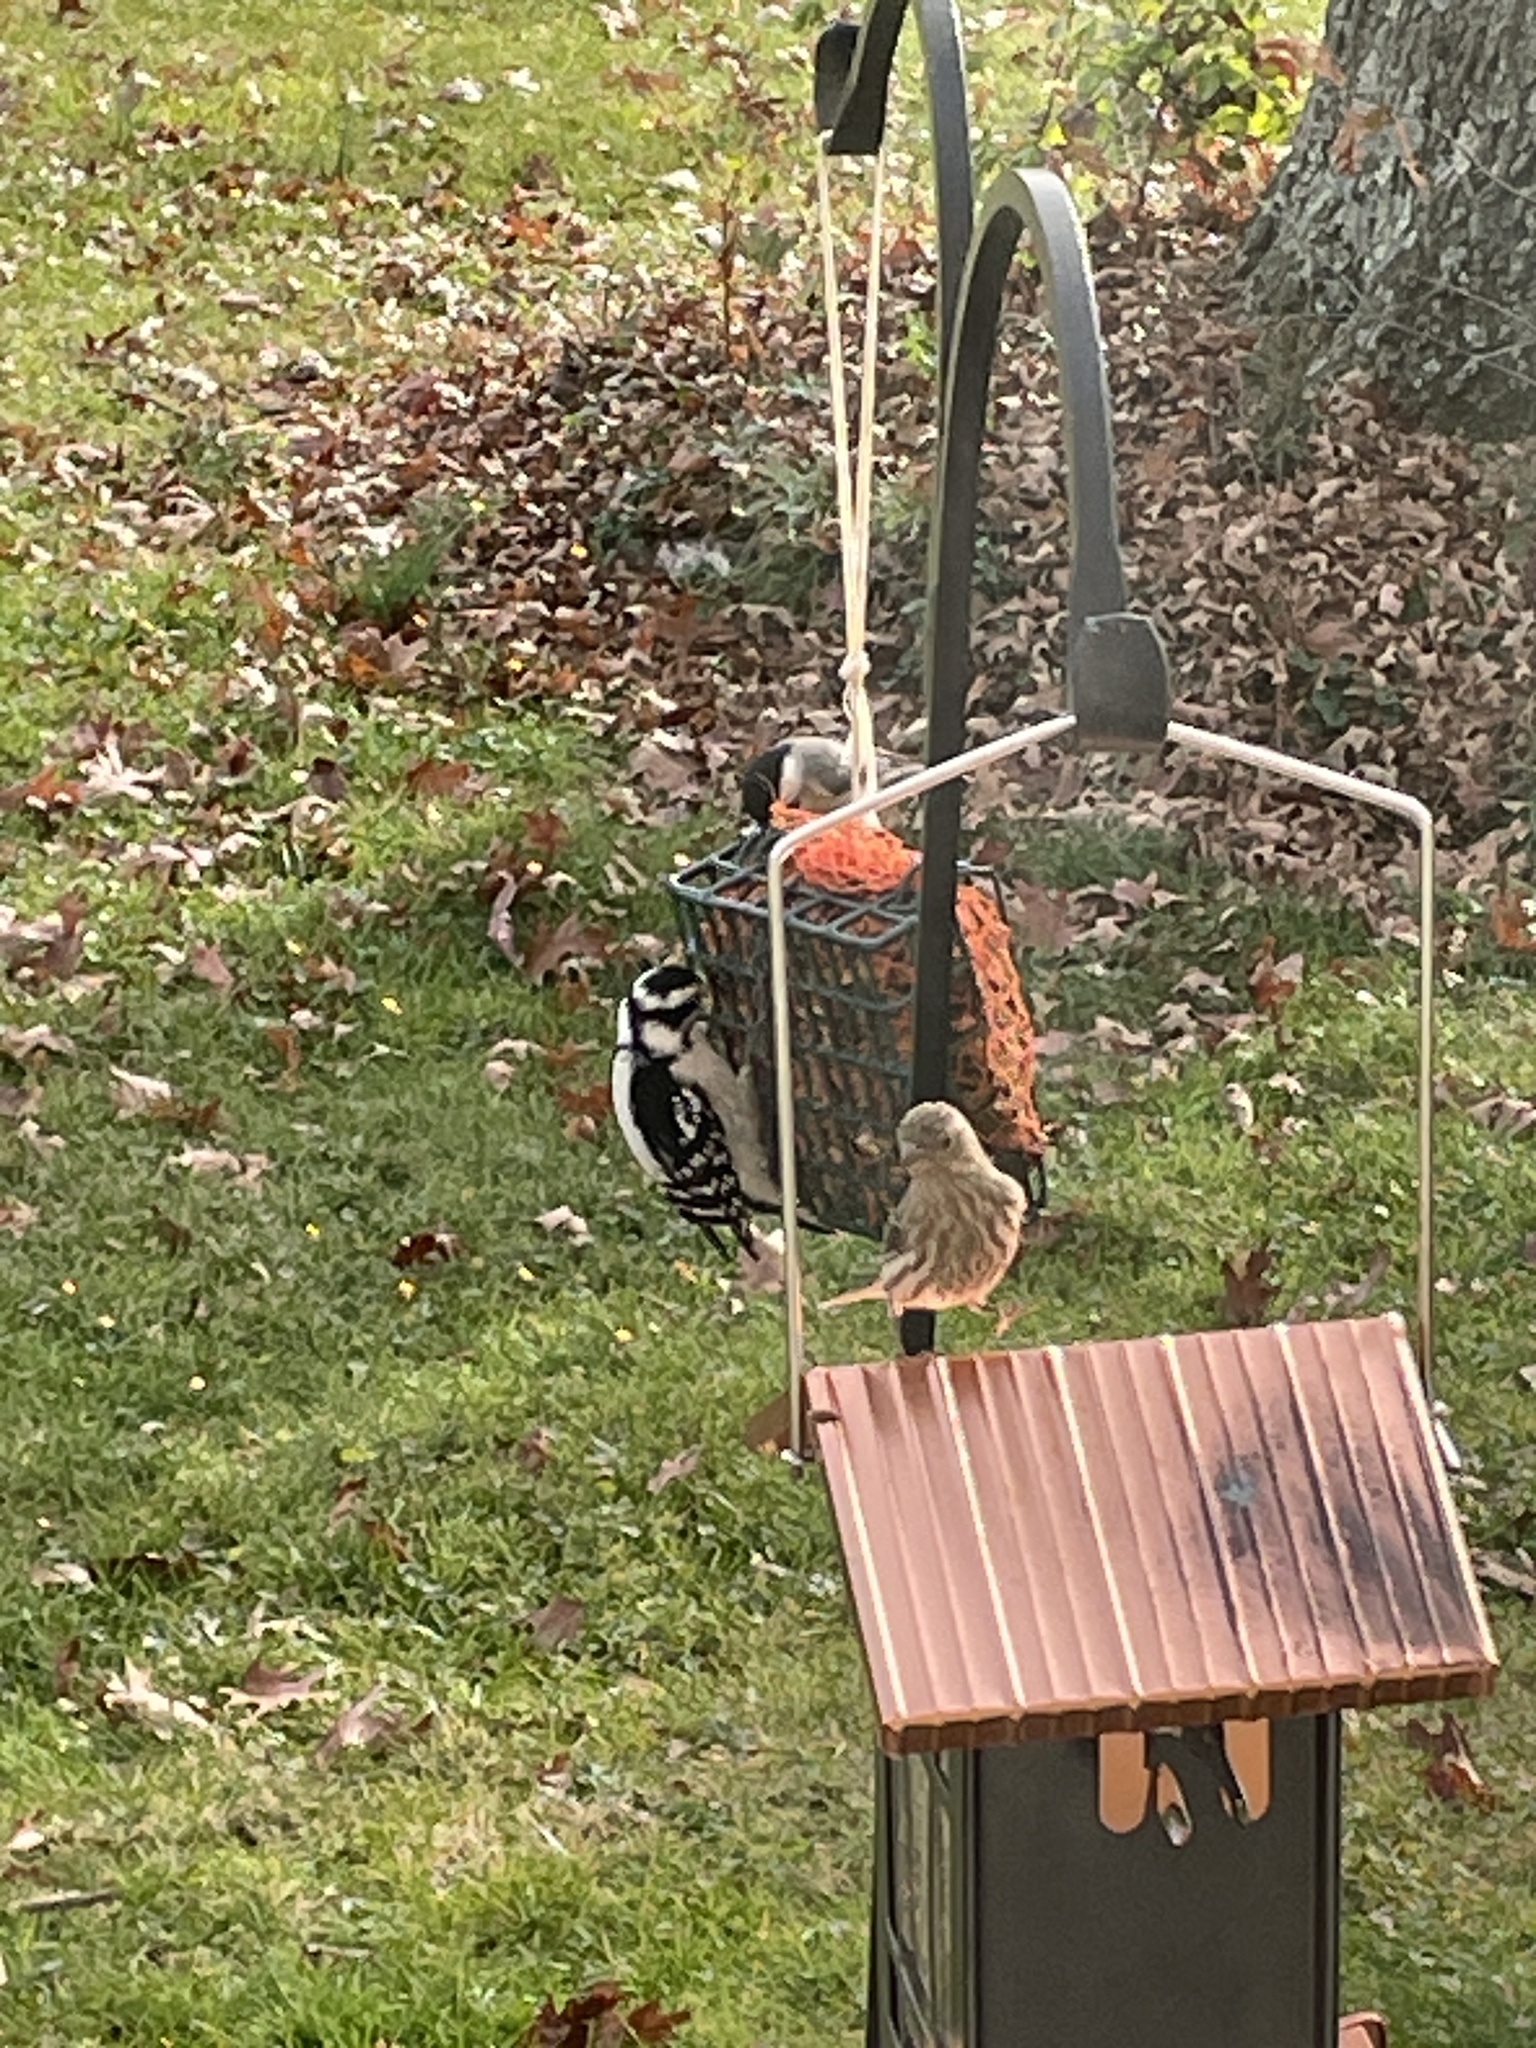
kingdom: Animalia
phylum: Chordata
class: Aves
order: Piciformes
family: Picidae
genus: Dryobates
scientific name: Dryobates pubescens
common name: Downy woodpecker
